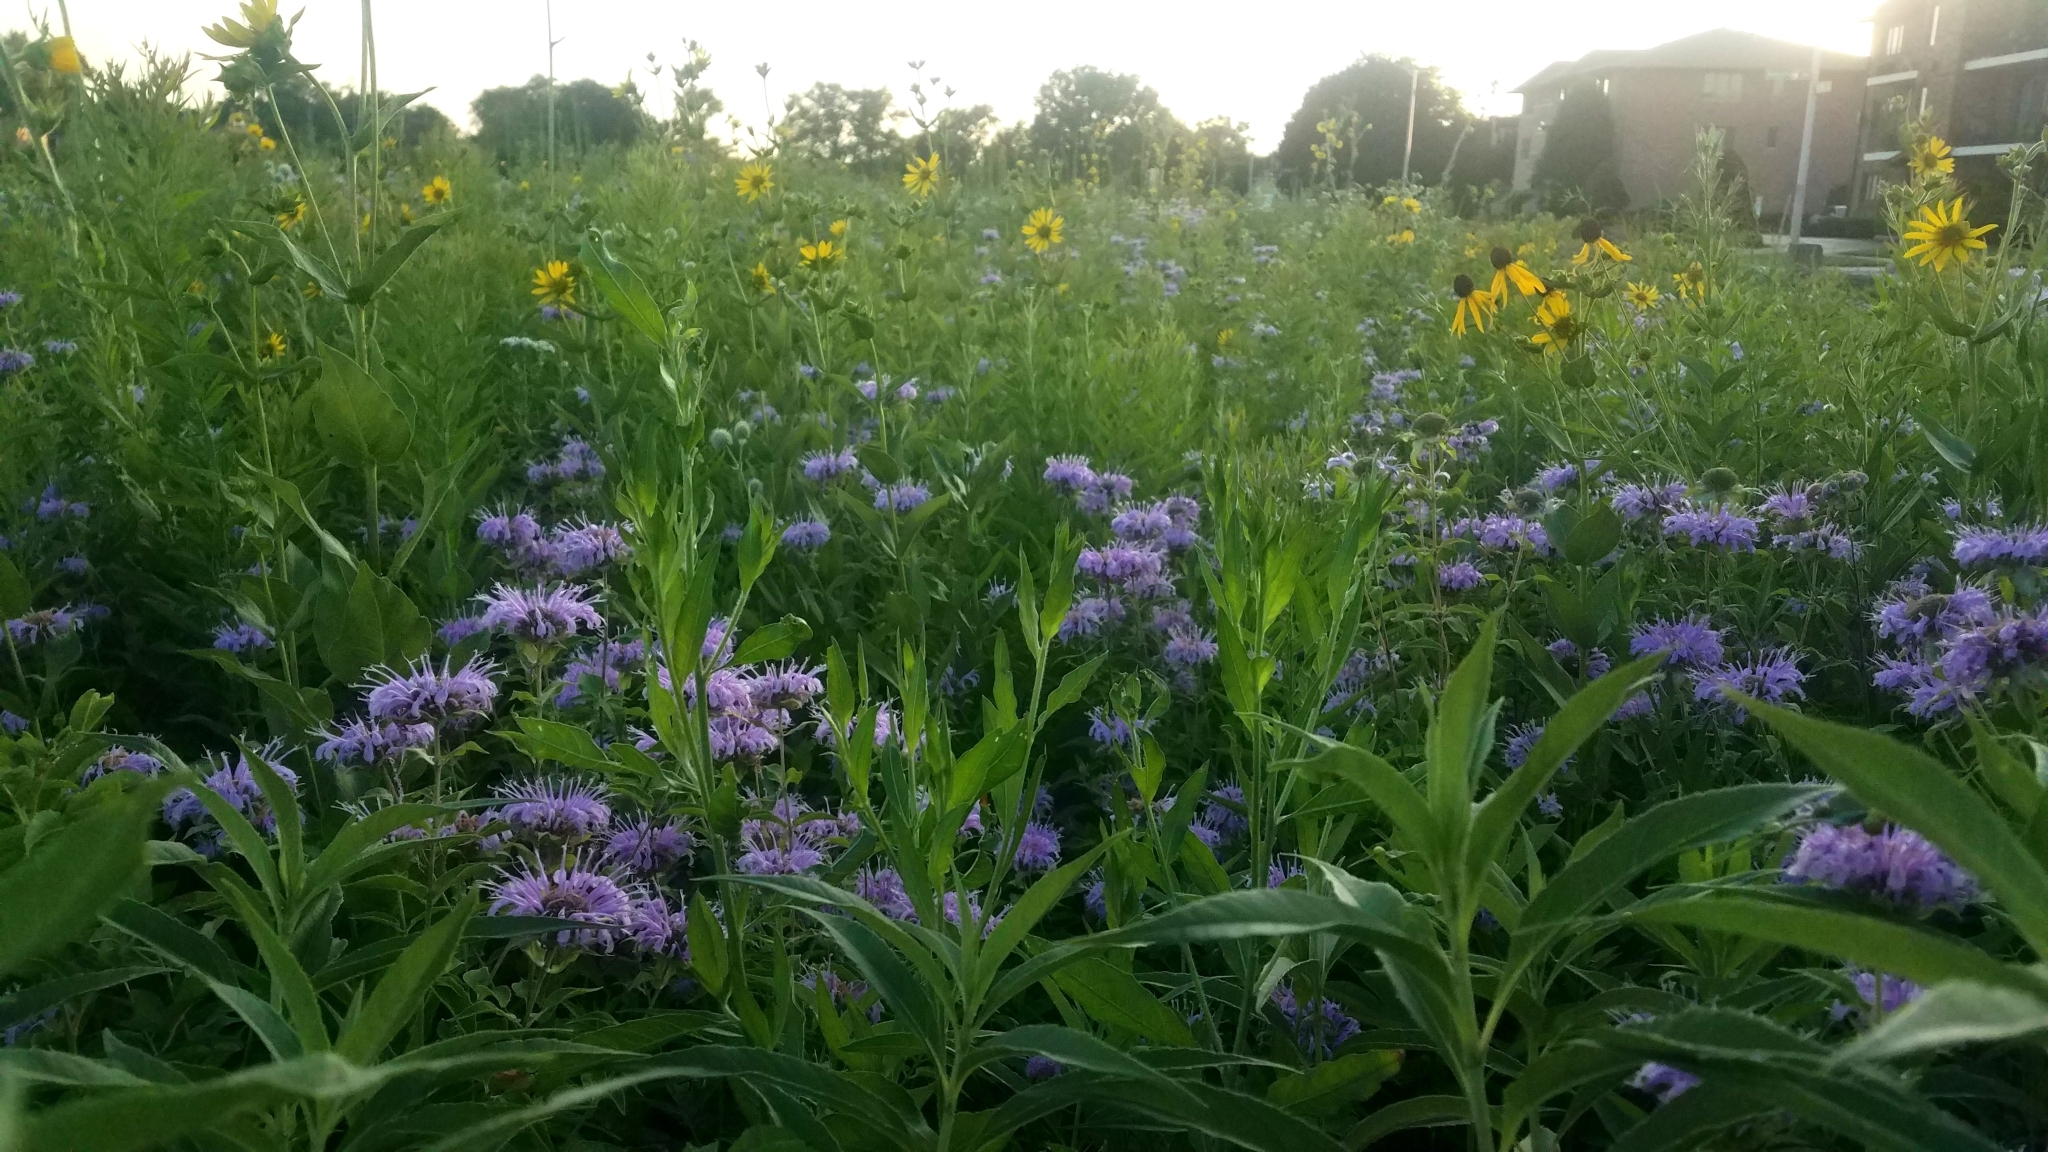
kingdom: Plantae
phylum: Tracheophyta
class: Magnoliopsida
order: Lamiales
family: Lamiaceae
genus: Monarda
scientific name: Monarda fistulosa
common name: Purple beebalm
